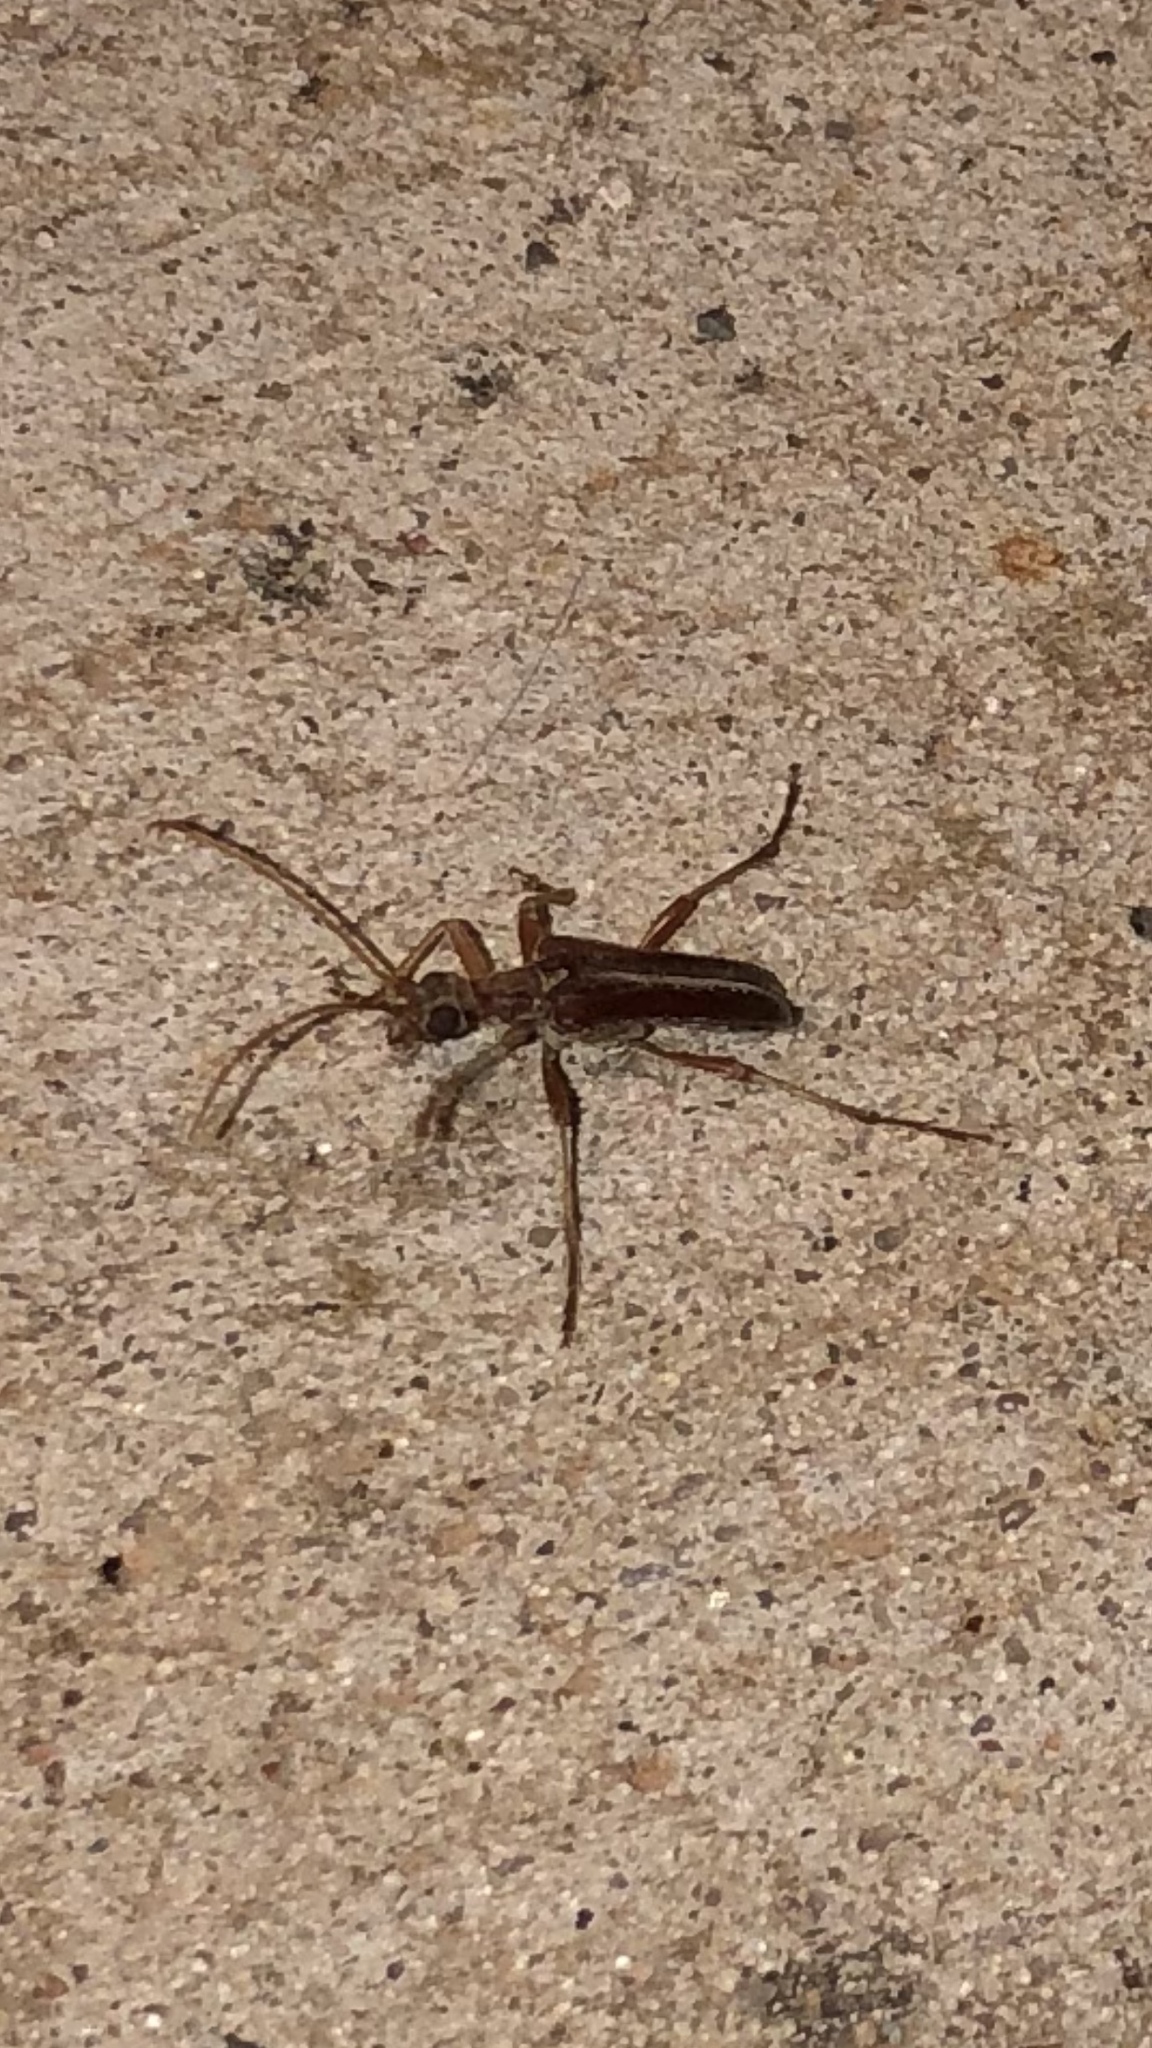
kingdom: Animalia
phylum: Arthropoda
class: Insecta
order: Coleoptera
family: Cerambycidae
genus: Stenocorus
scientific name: Stenocorus cinnamopterus
